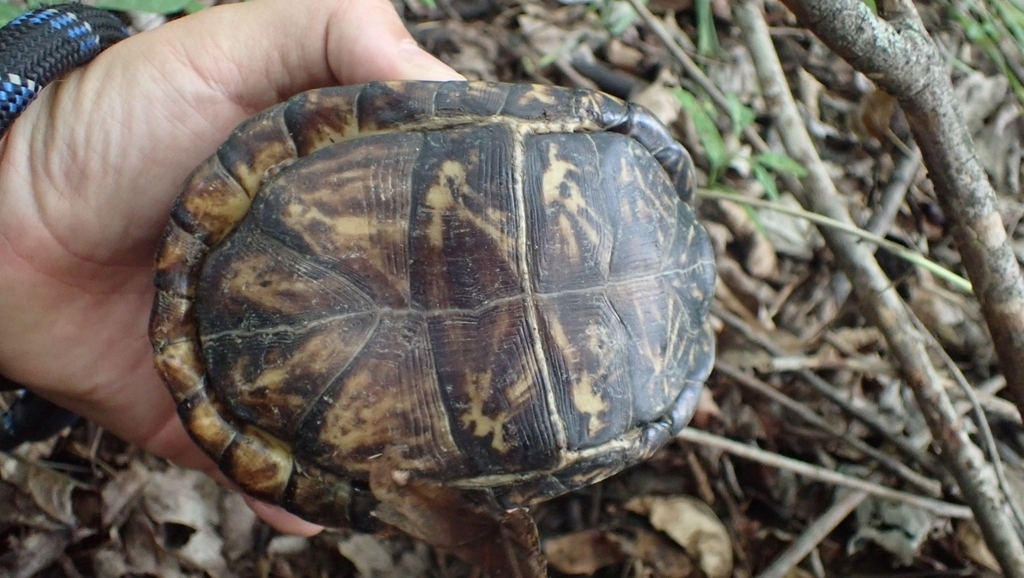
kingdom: Animalia
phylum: Chordata
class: Testudines
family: Emydidae
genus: Terrapene
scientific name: Terrapene carolina
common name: Common box turtle
